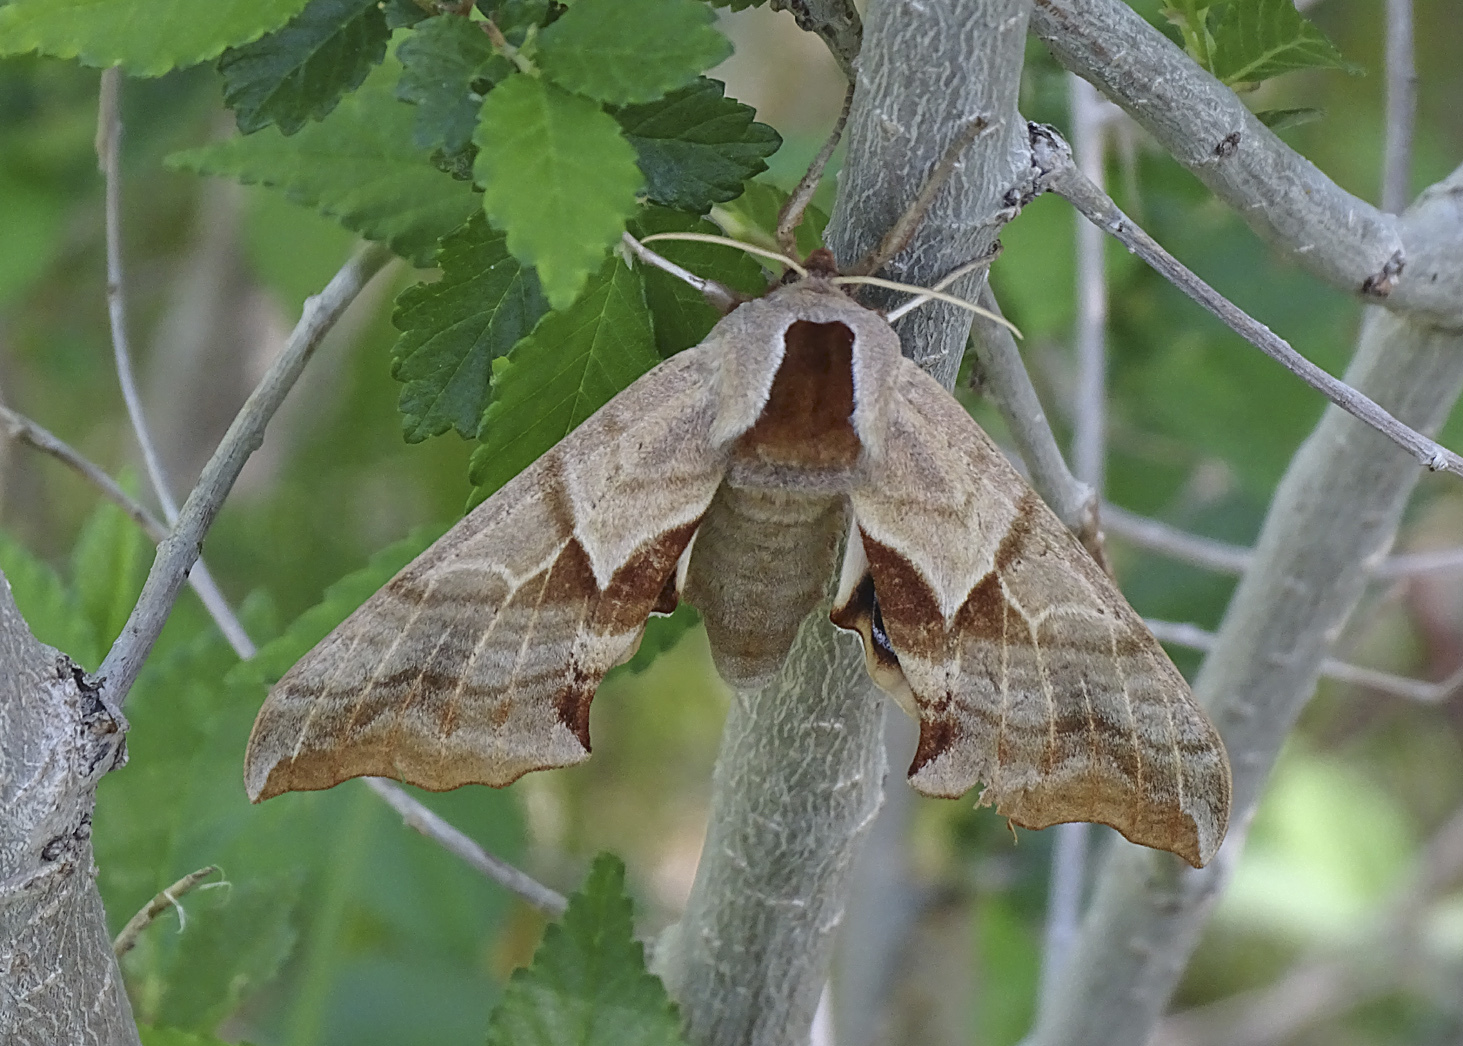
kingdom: Animalia
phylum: Arthropoda
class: Insecta
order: Lepidoptera
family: Sphingidae
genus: Smerinthus
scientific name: Smerinthus cerisyi
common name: Cerisy's sphinx moth
